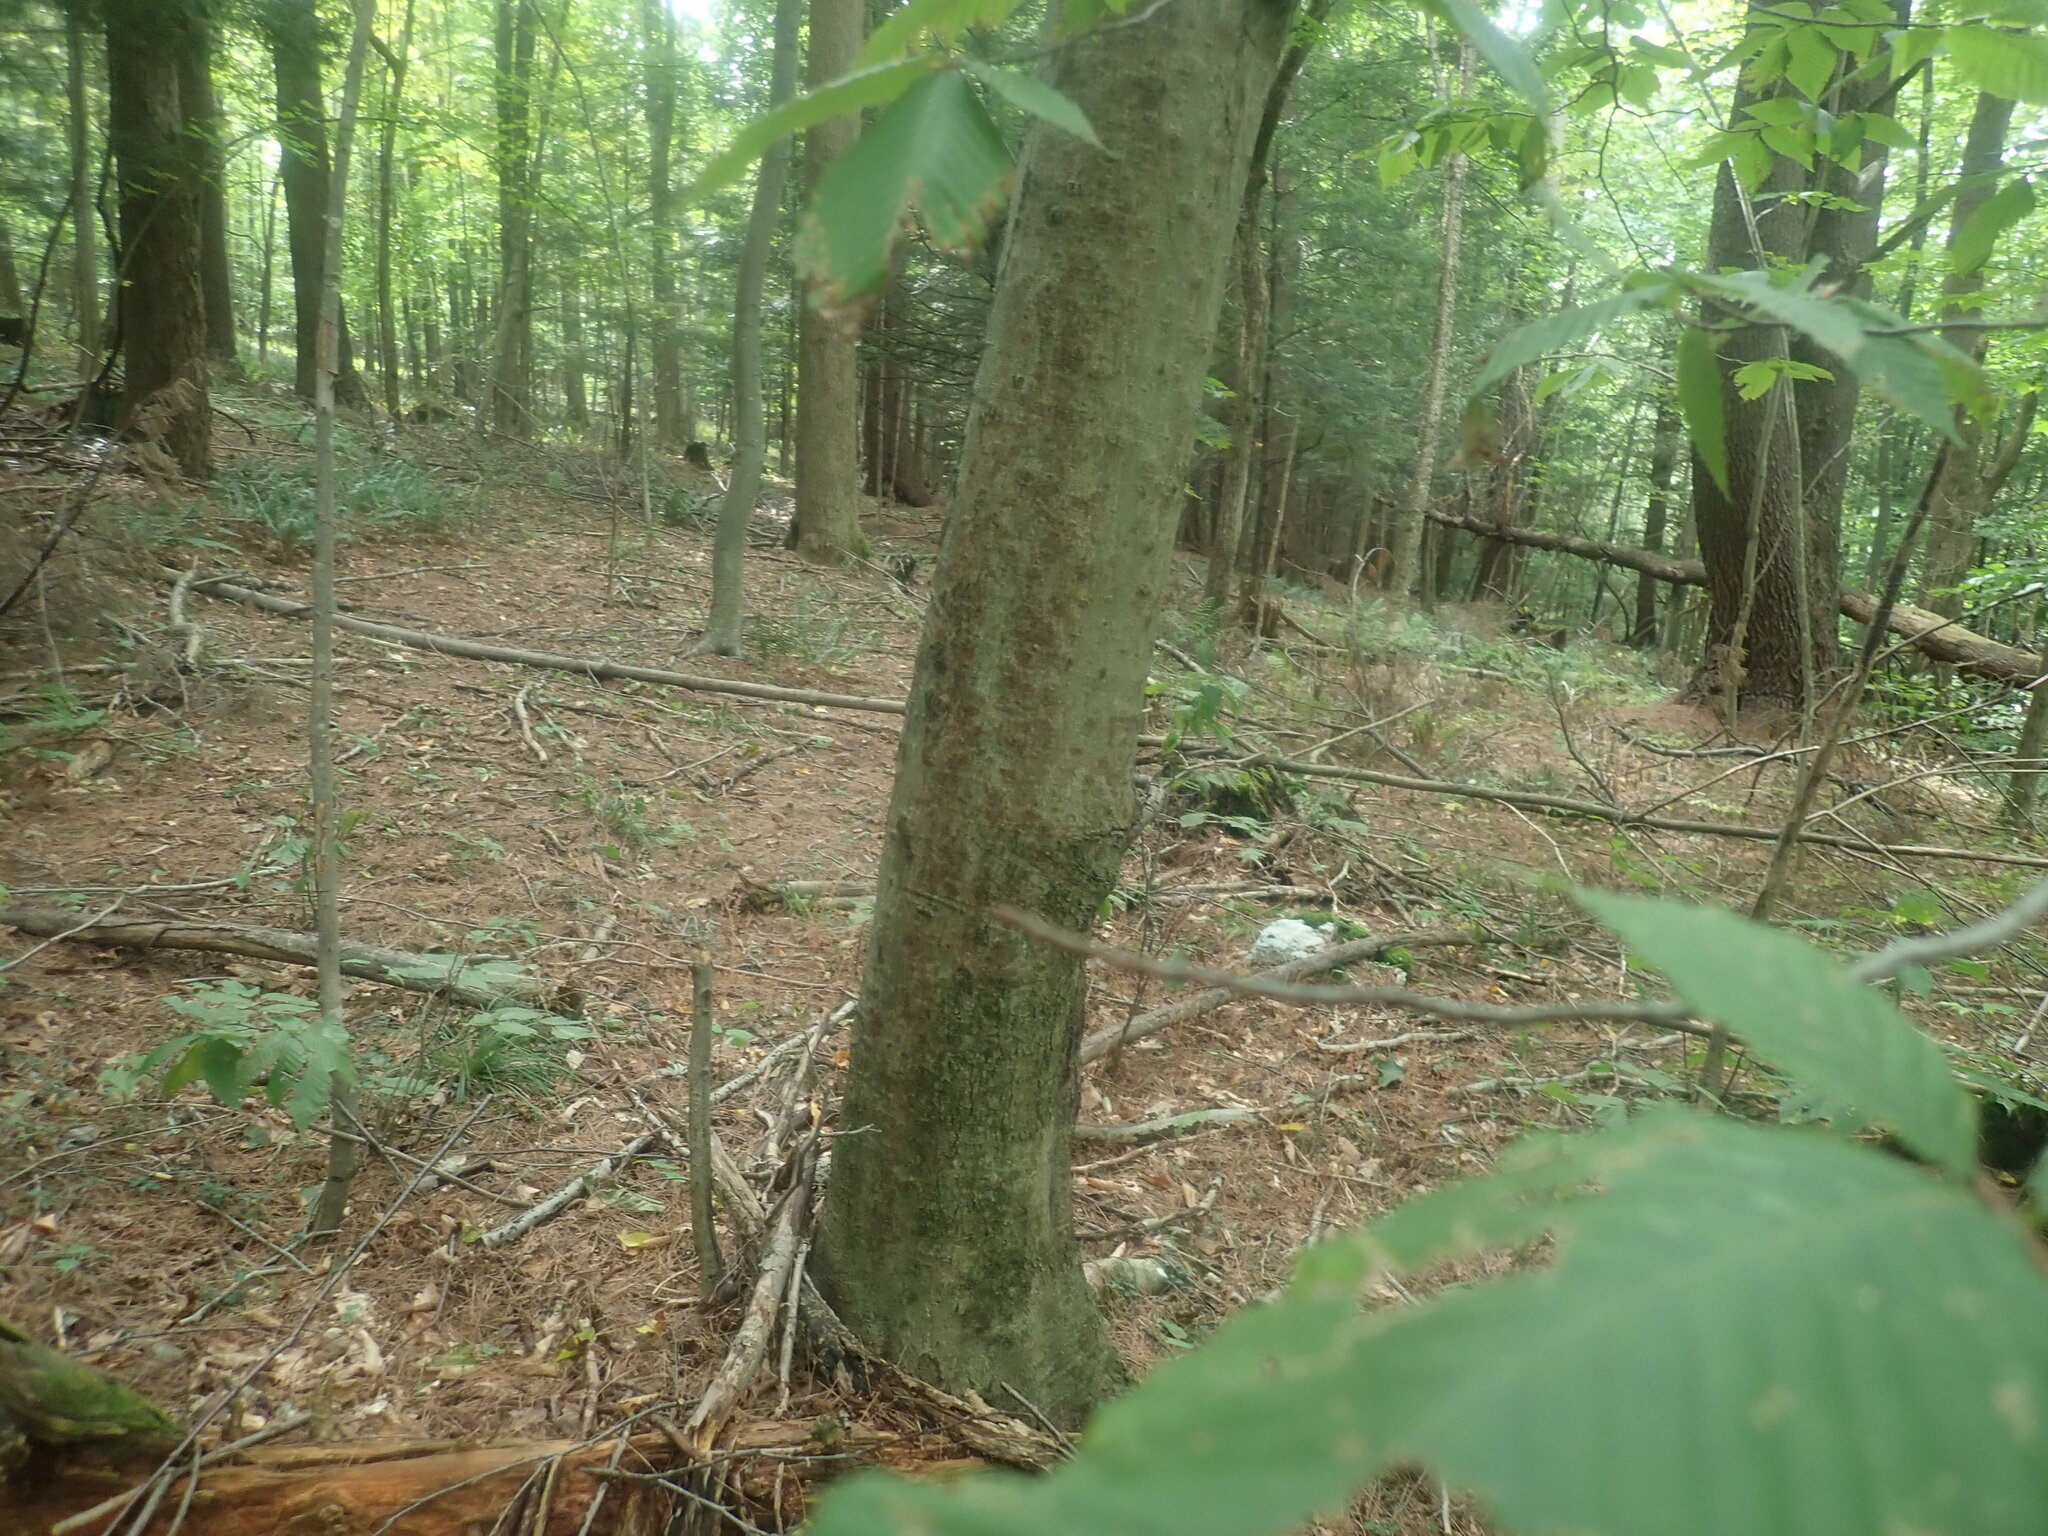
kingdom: Plantae
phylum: Tracheophyta
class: Magnoliopsida
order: Fagales
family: Fagaceae
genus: Fagus
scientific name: Fagus grandifolia
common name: American beech
